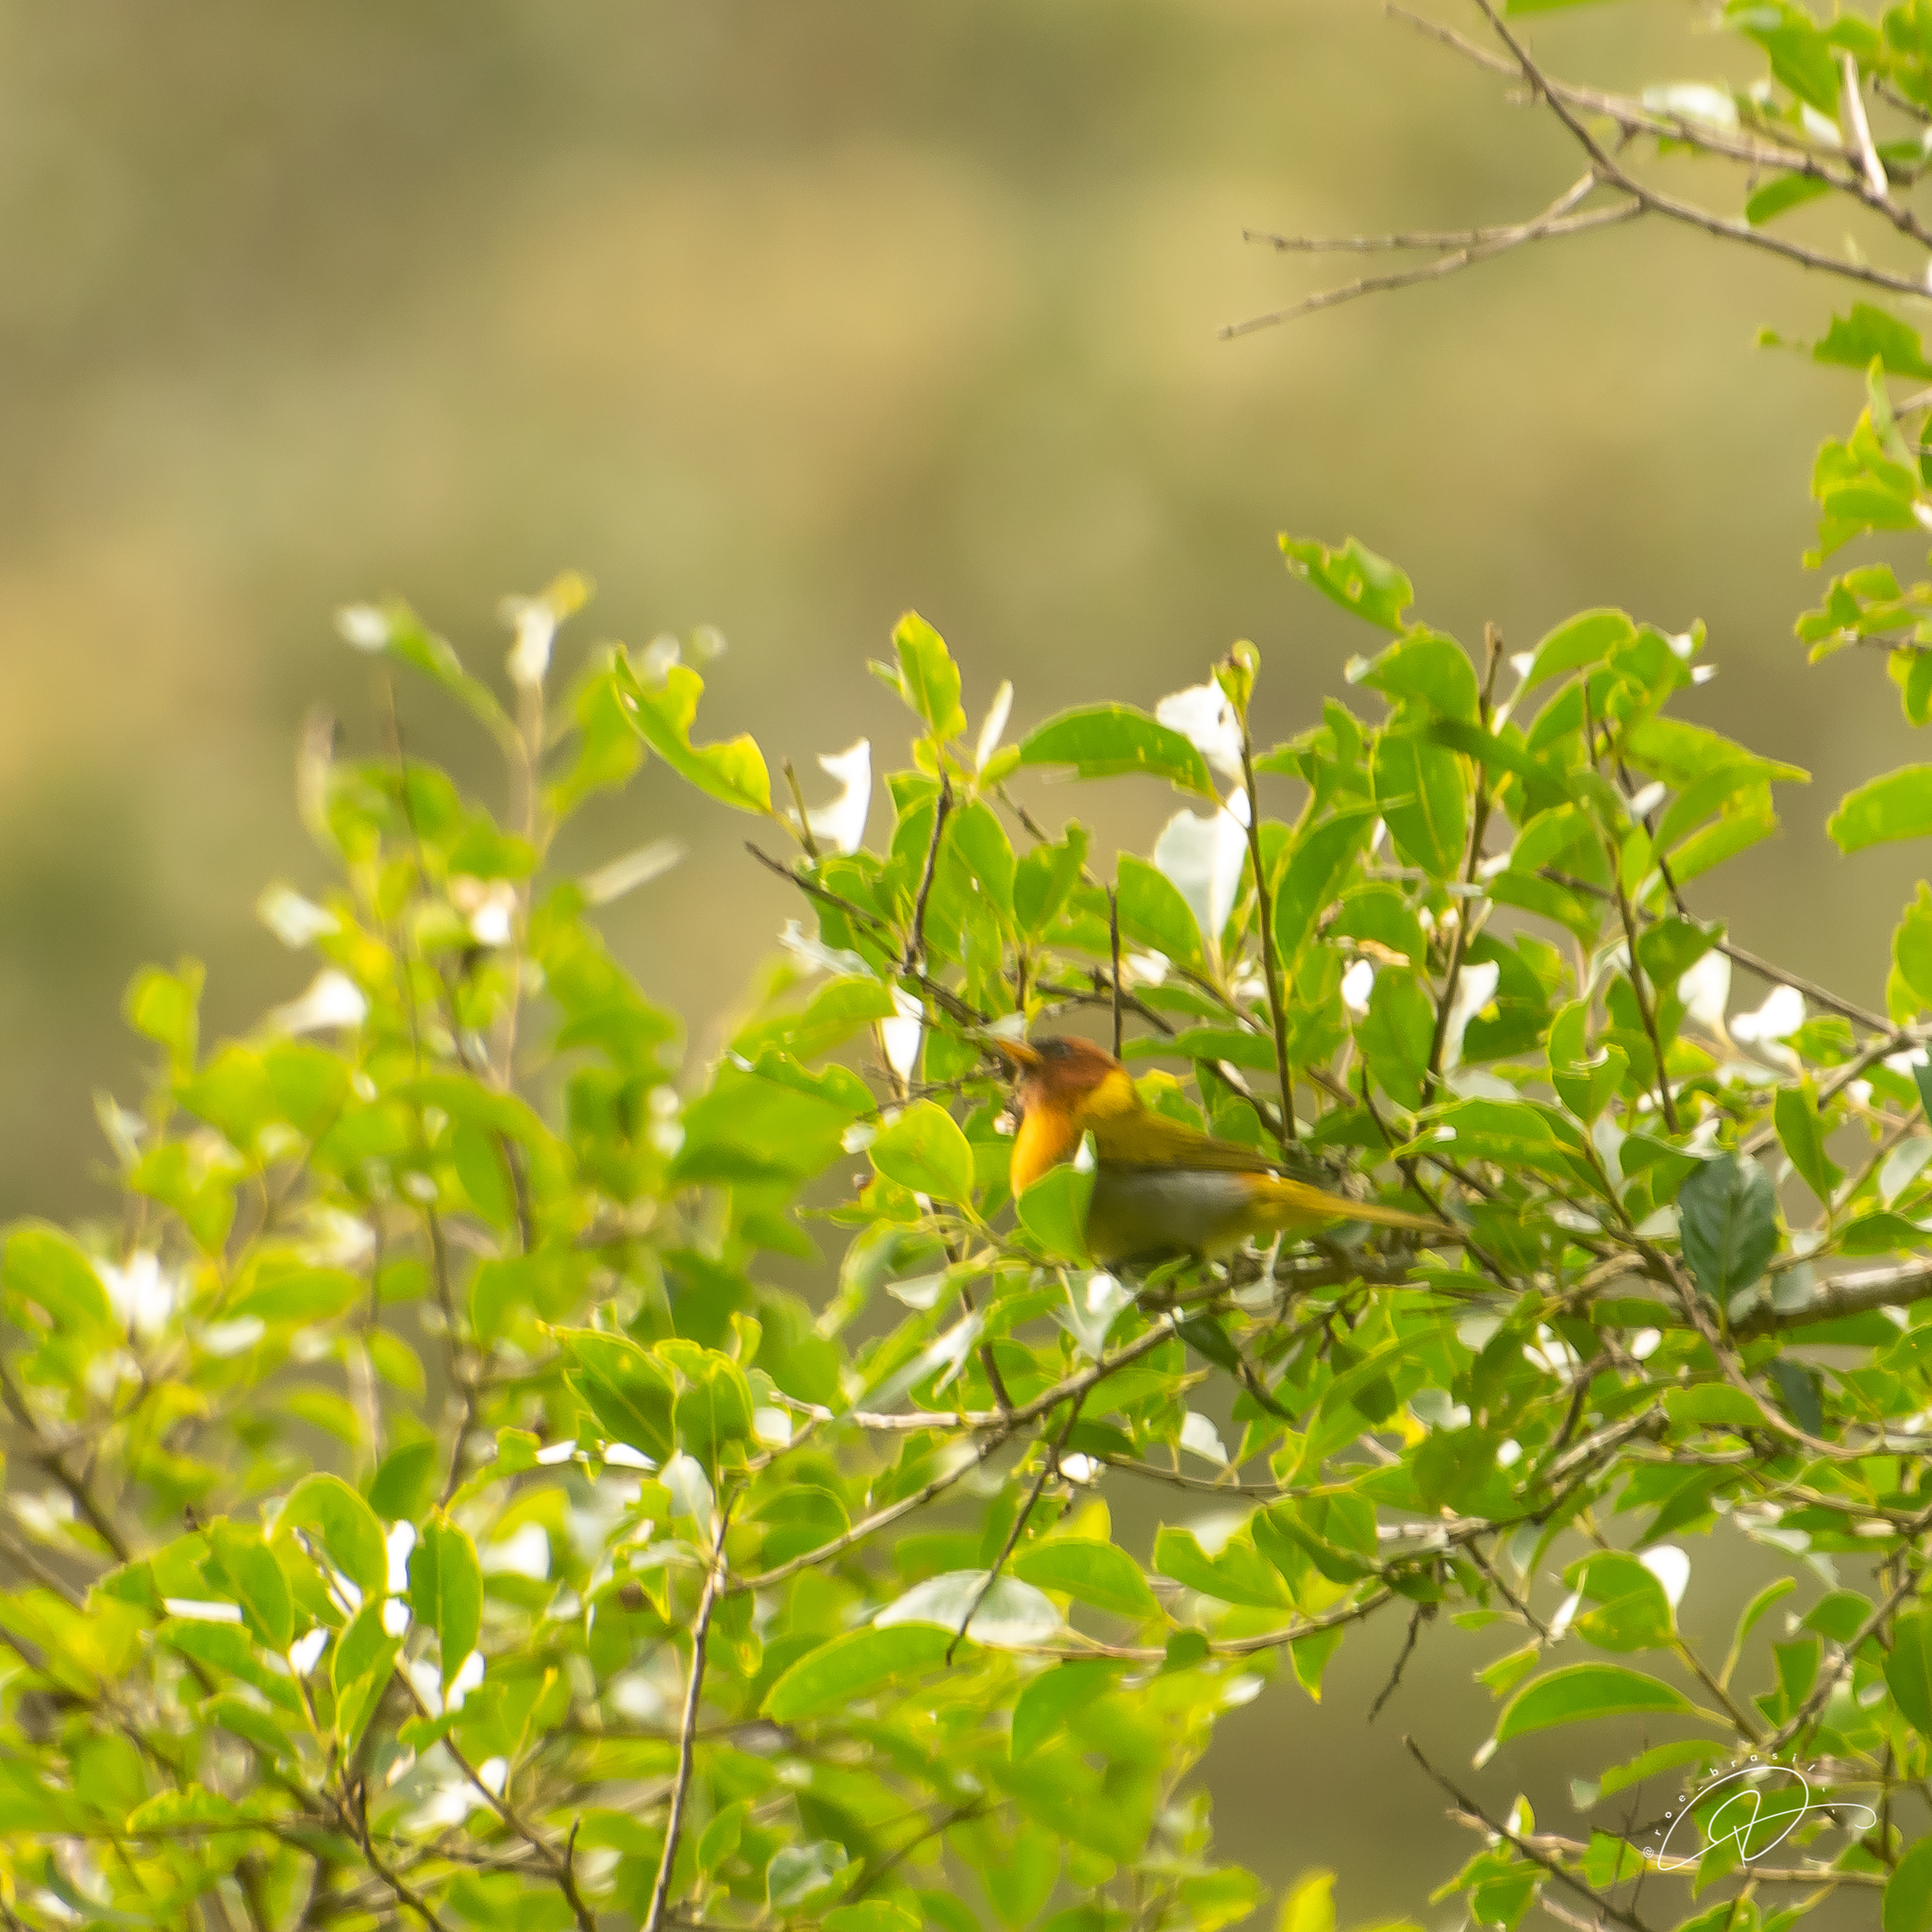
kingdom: Animalia
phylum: Chordata
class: Aves
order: Passeriformes
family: Thraupidae
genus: Hemithraupis
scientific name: Hemithraupis ruficapilla
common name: Rufous-headed tanager
